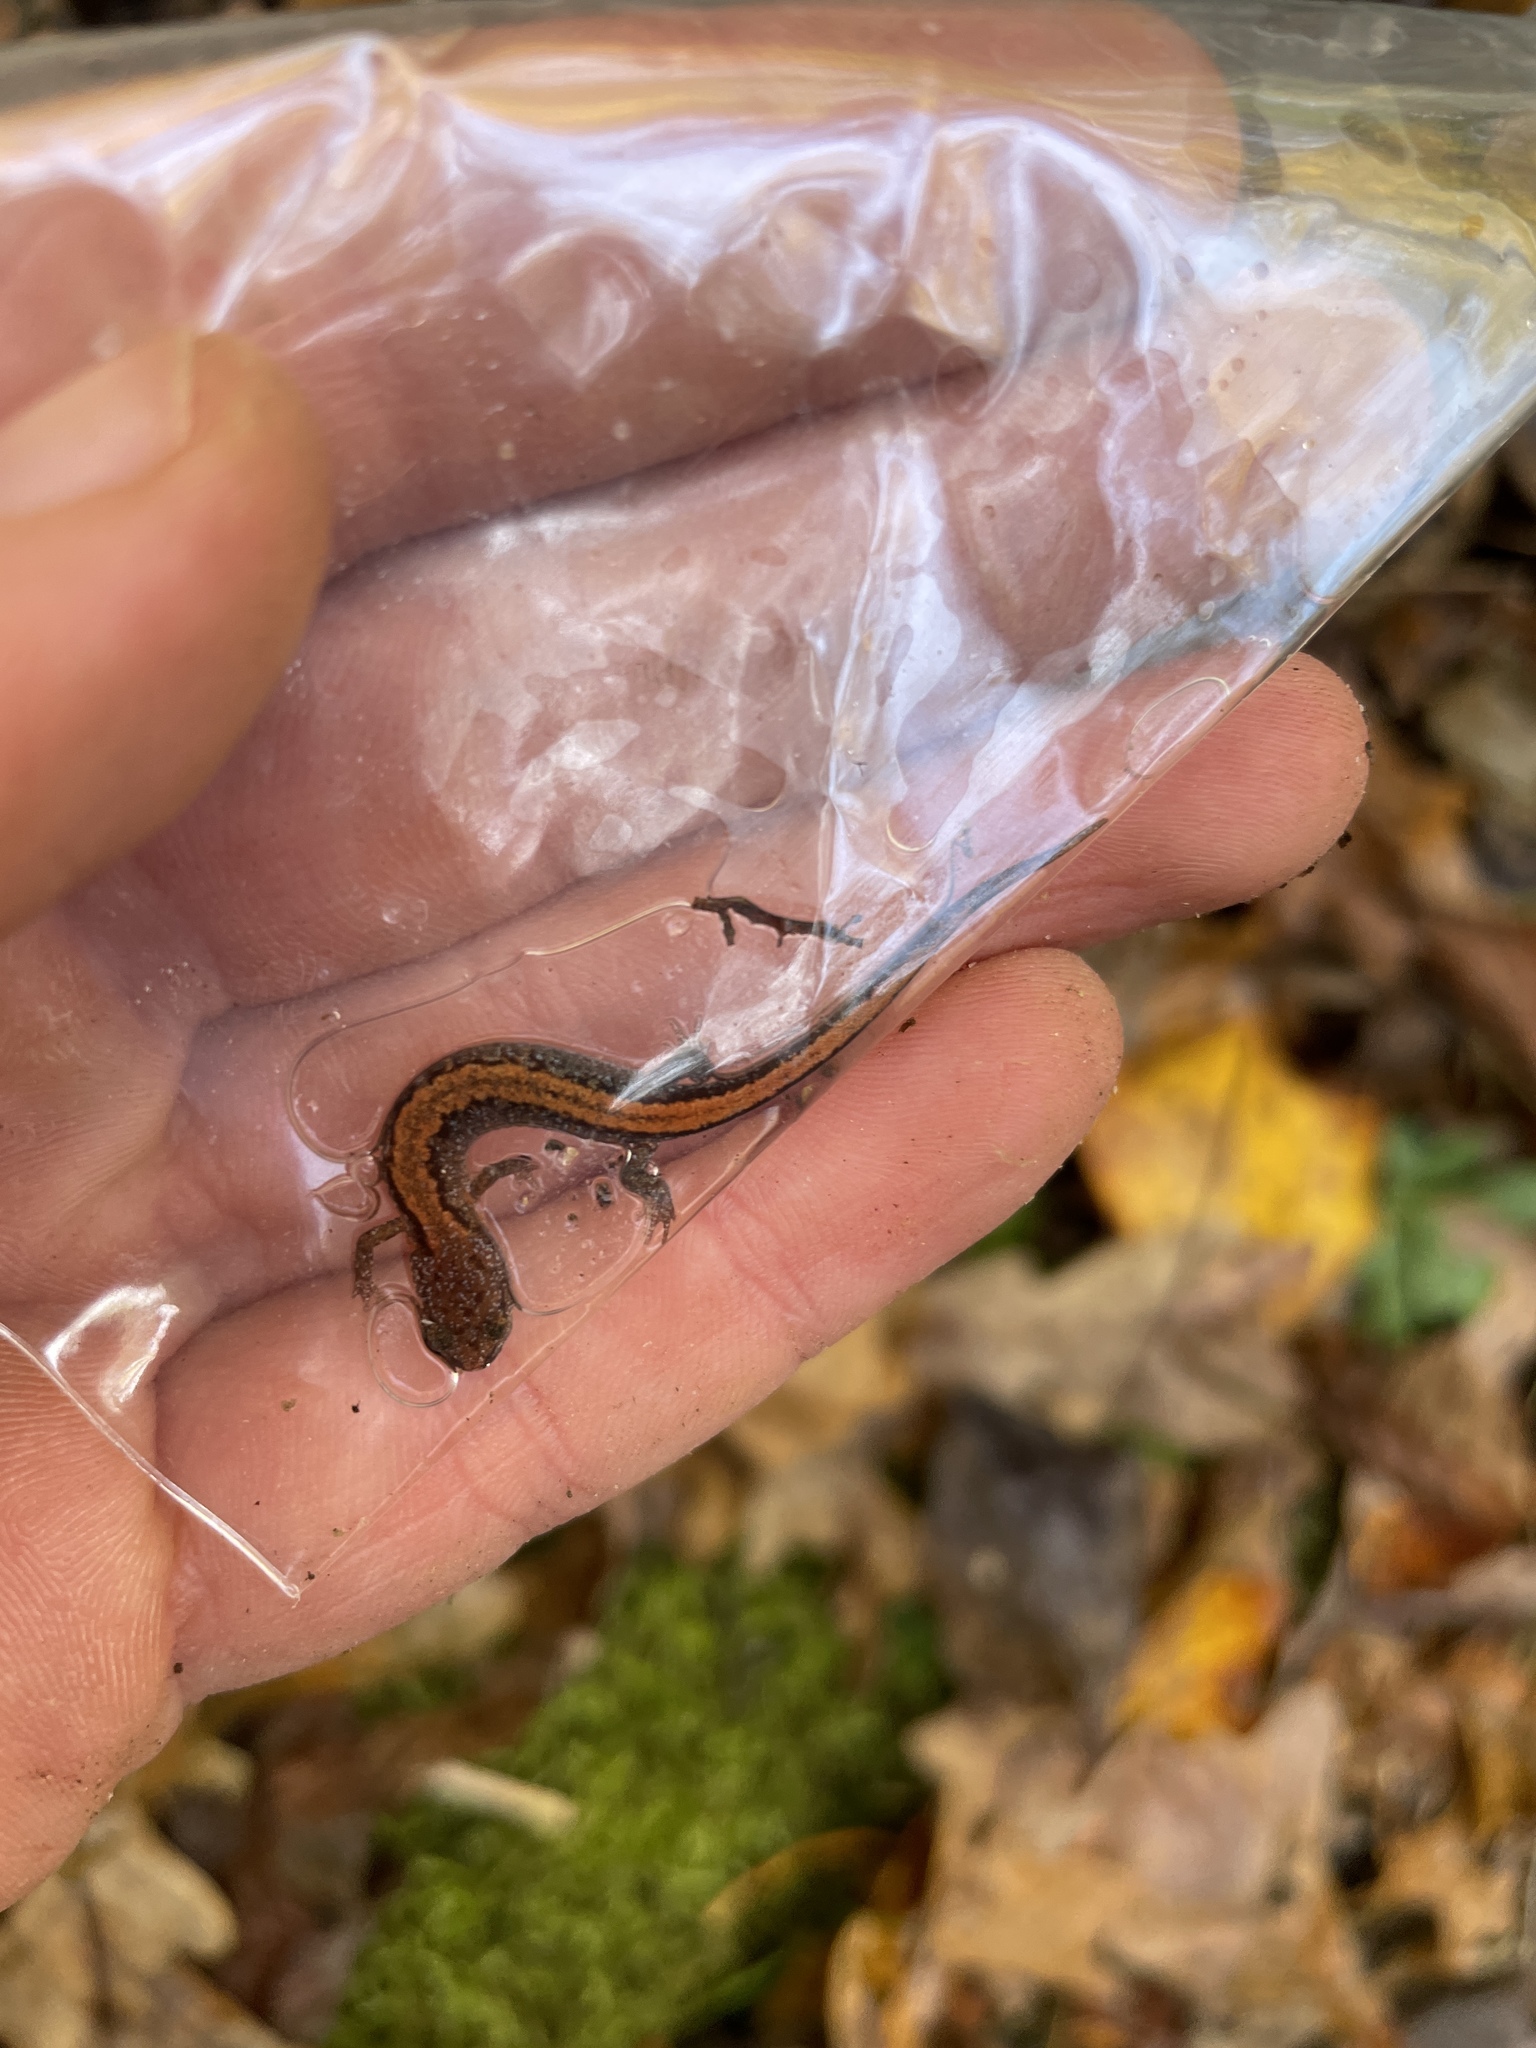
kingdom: Animalia
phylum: Chordata
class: Amphibia
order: Caudata
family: Plethodontidae
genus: Plethodon
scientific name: Plethodon websteri
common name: Webster's salamander
